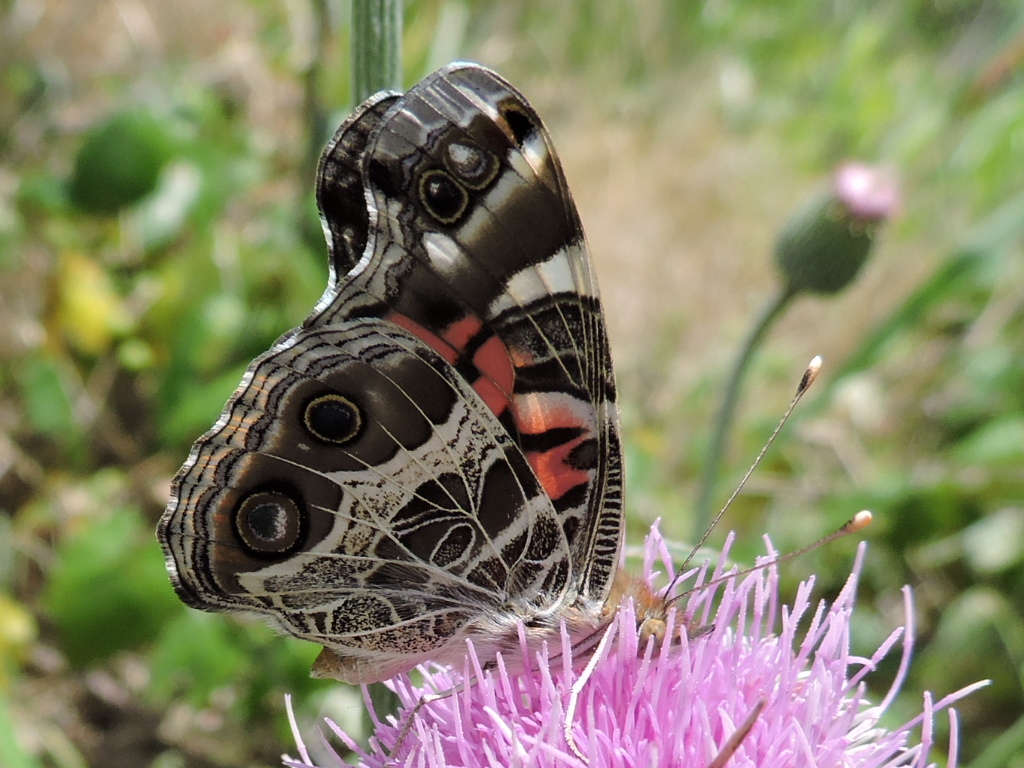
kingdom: Animalia
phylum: Arthropoda
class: Insecta
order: Lepidoptera
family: Nymphalidae
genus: Vanessa
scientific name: Vanessa virginiensis
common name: American lady
